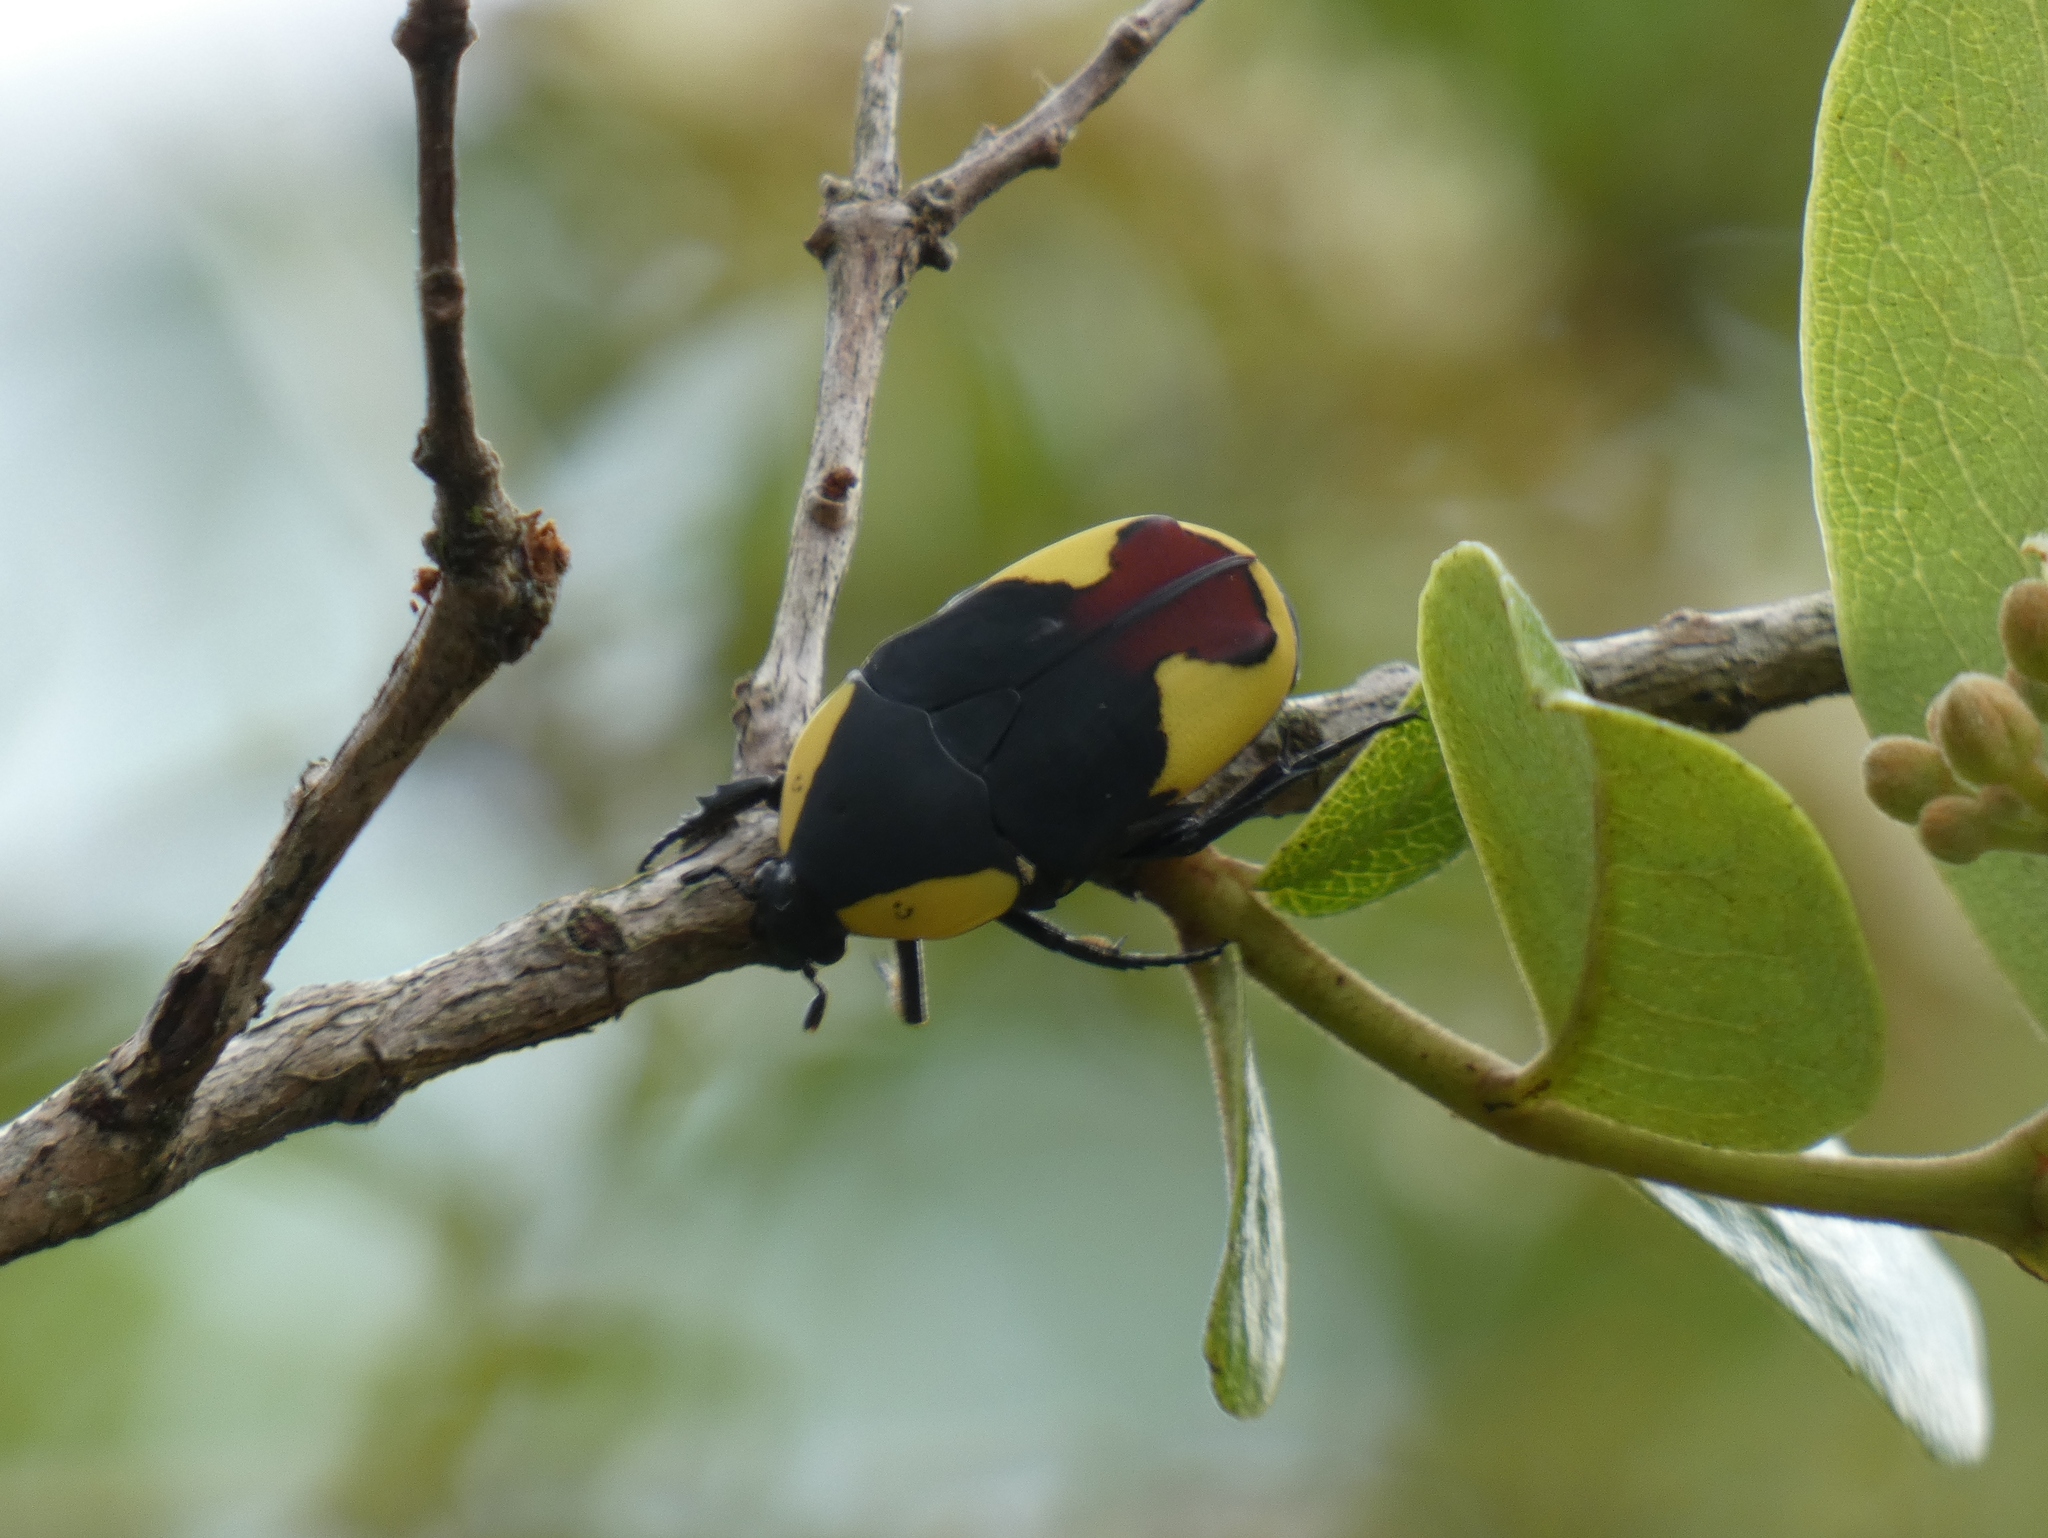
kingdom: Animalia
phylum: Arthropoda
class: Insecta
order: Coleoptera
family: Scarabaeidae
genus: Pachnoda
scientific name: Pachnoda kustai
